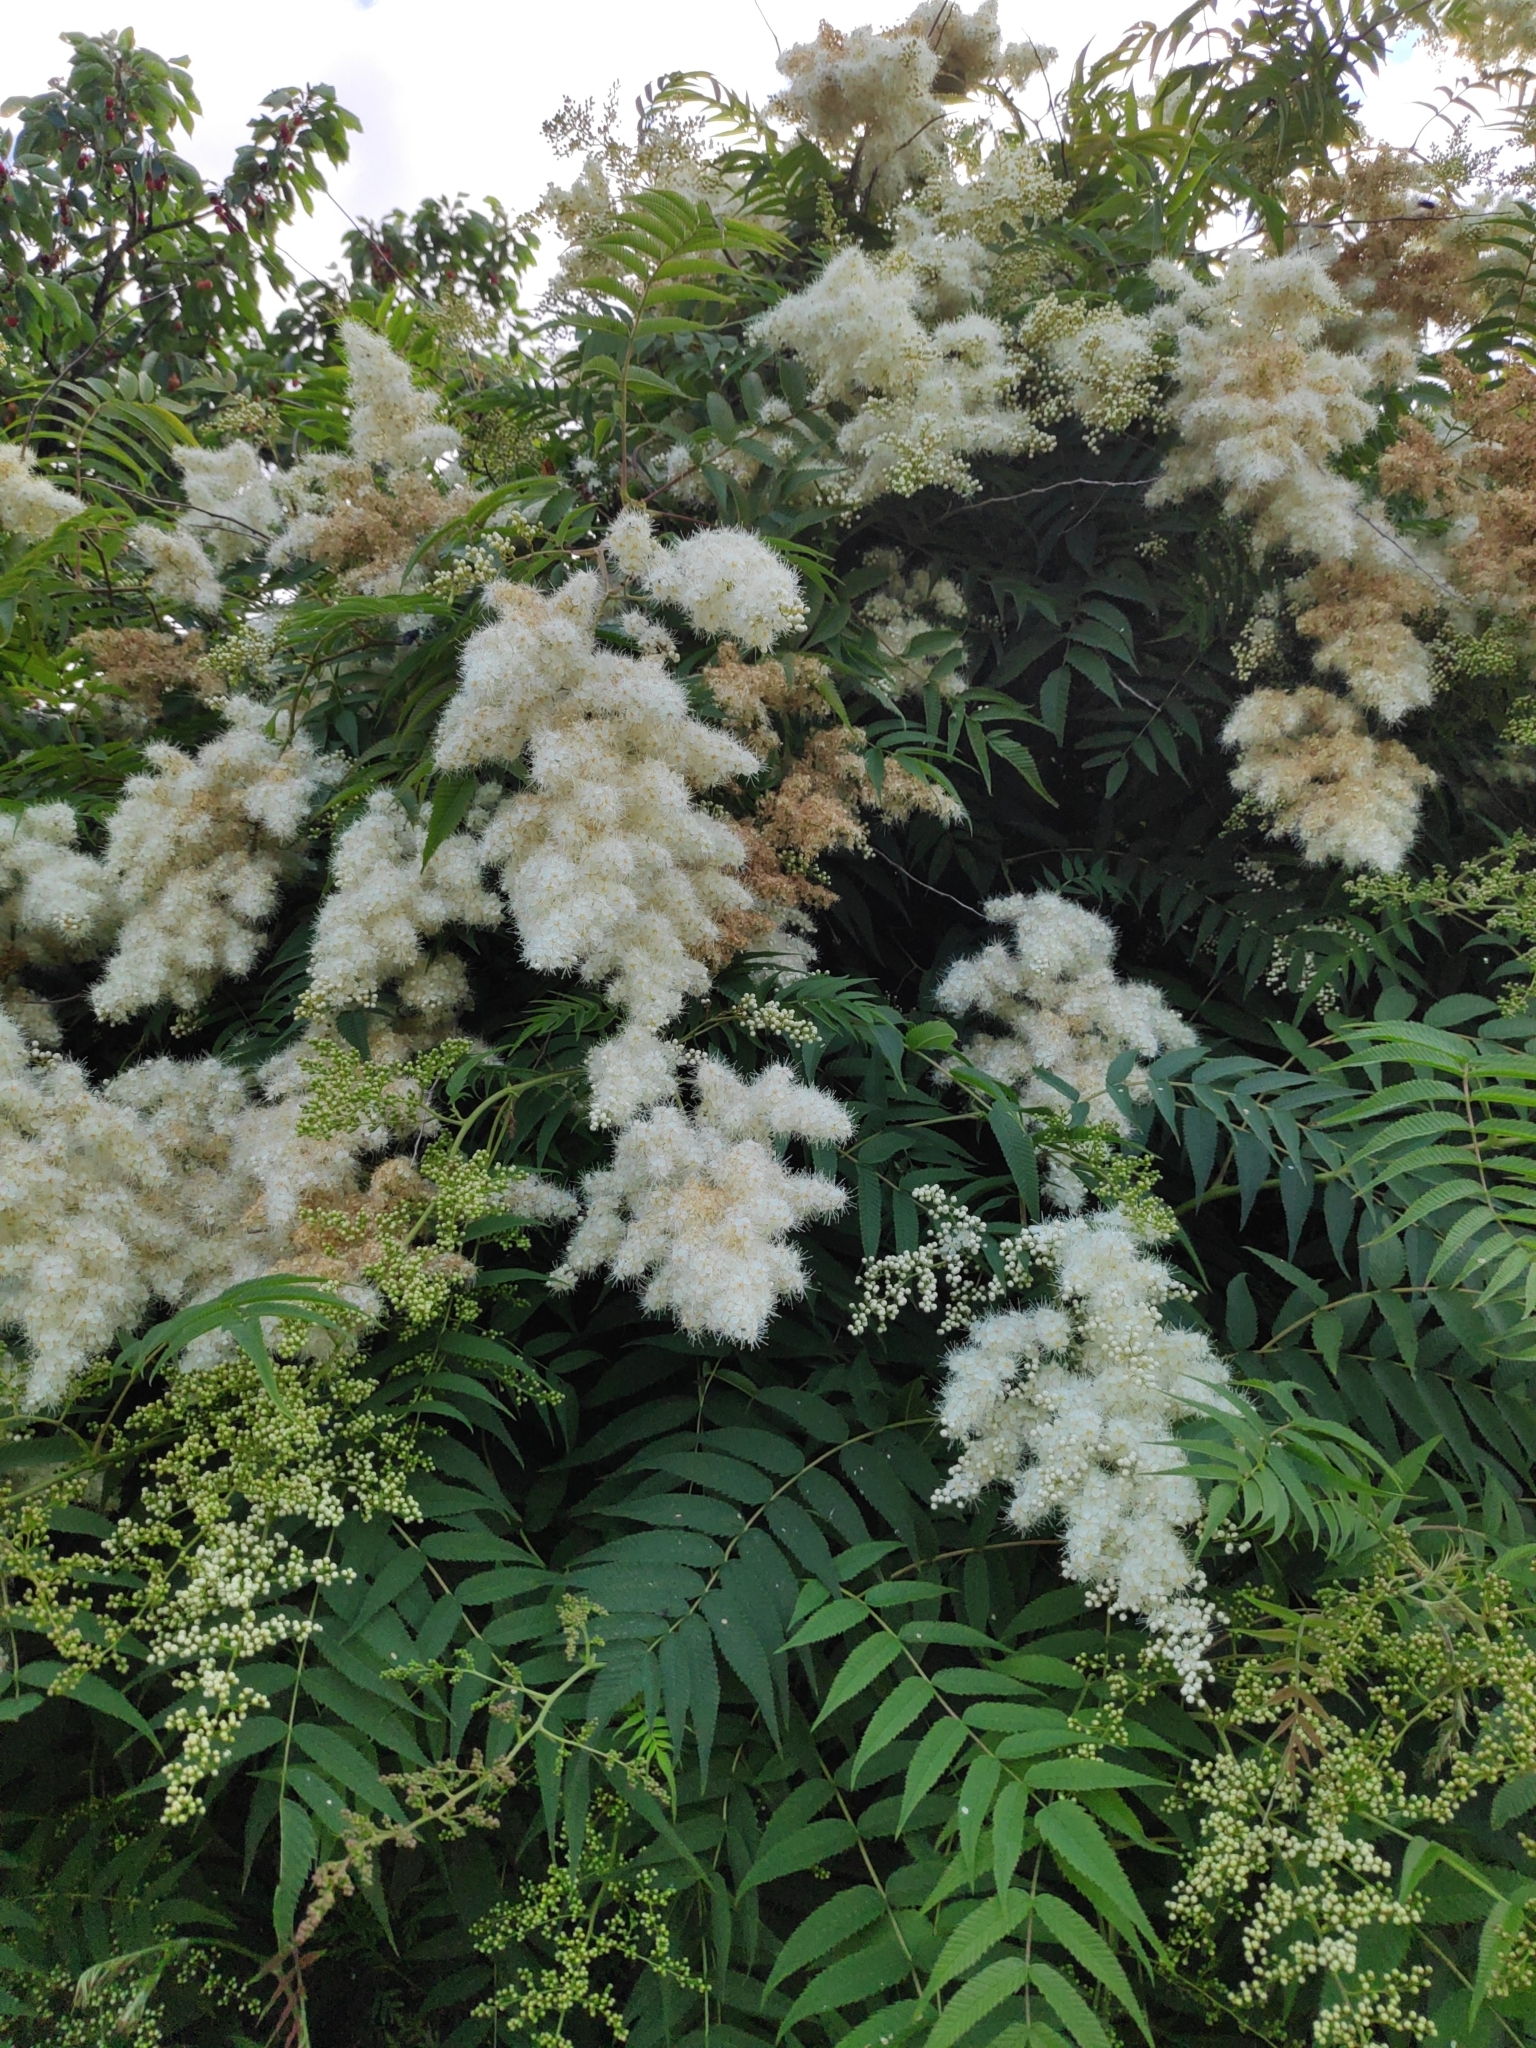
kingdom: Plantae
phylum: Tracheophyta
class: Magnoliopsida
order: Rosales
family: Rosaceae
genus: Sorbaria
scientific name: Sorbaria sorbifolia
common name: False spiraea
